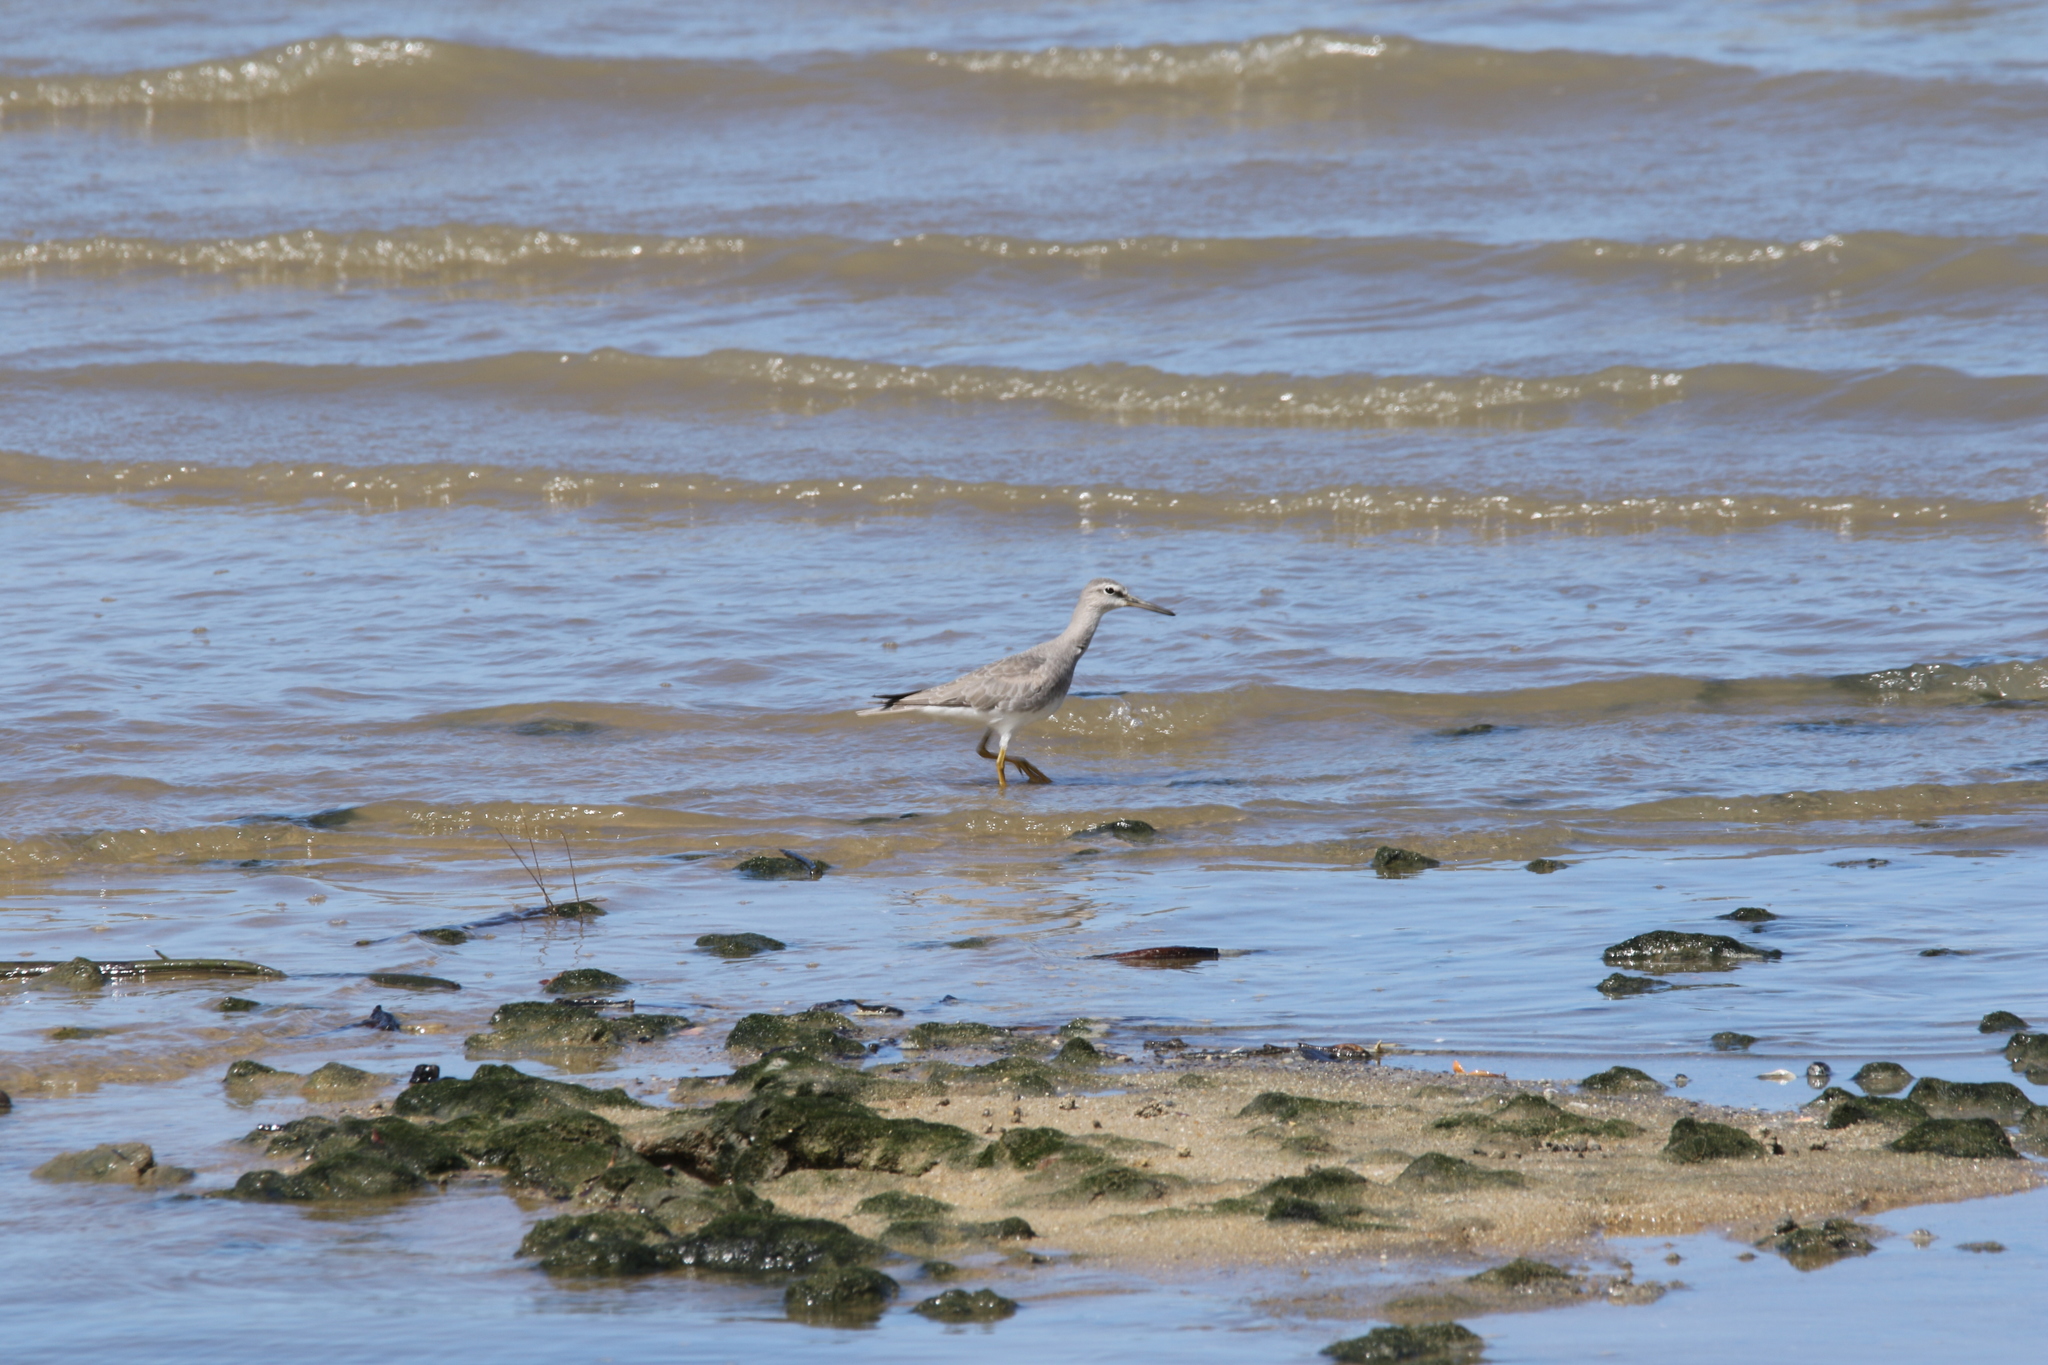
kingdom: Animalia
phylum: Chordata
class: Aves
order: Charadriiformes
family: Scolopacidae
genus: Tringa
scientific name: Tringa brevipes
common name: Grey-tailed tattler
